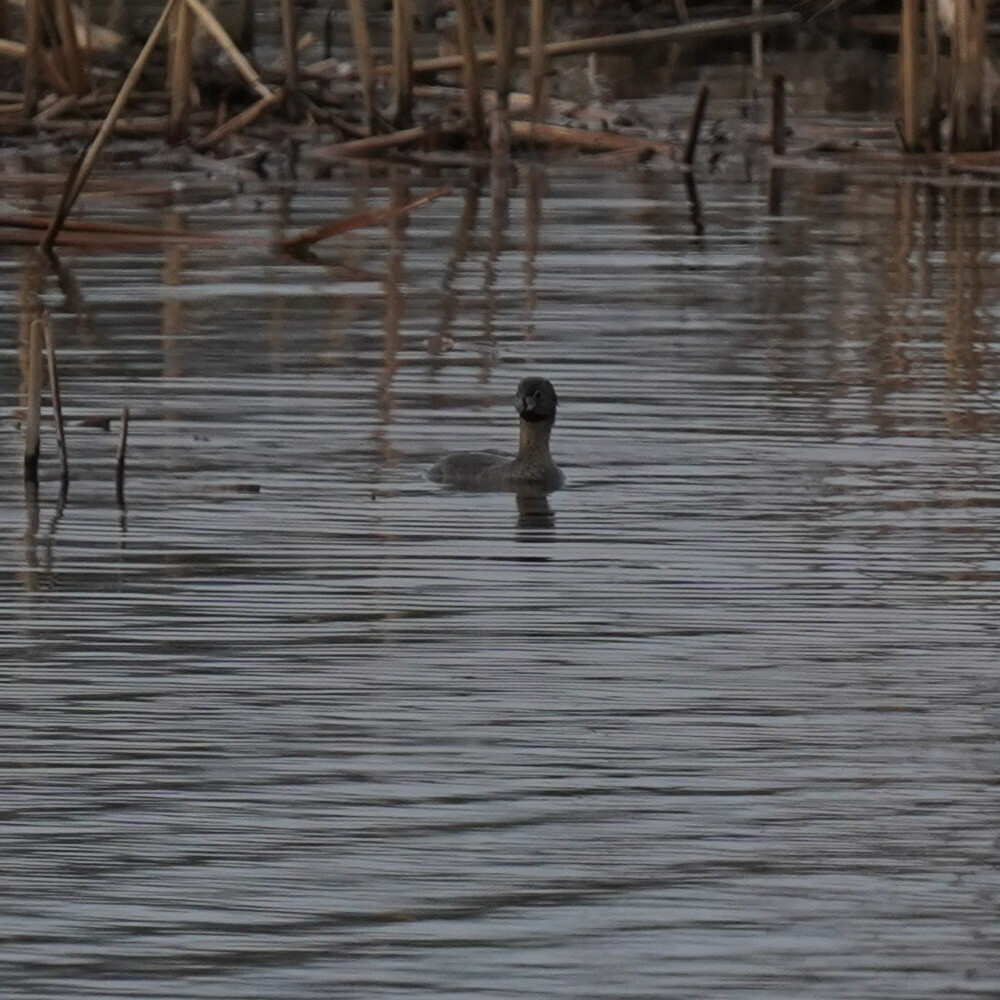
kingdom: Animalia
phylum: Chordata
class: Aves
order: Podicipediformes
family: Podicipedidae
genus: Podilymbus
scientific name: Podilymbus podiceps
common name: Pied-billed grebe
